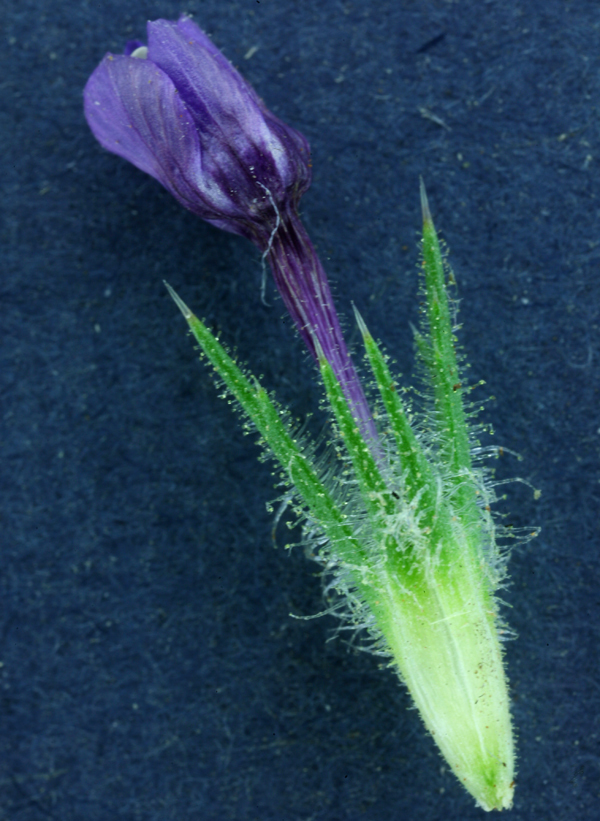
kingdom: Plantae
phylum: Tracheophyta
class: Magnoliopsida
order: Ericales
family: Polemoniaceae
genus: Navarretia
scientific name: Navarretia pubescens
